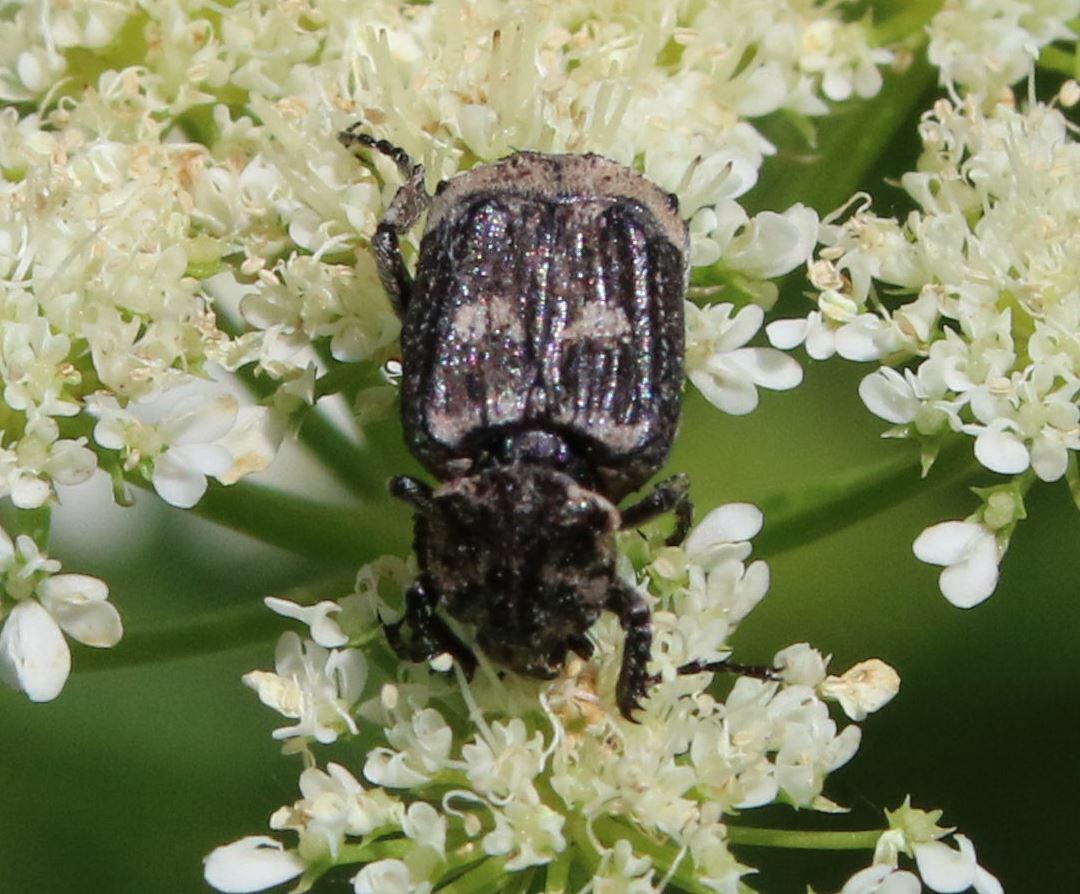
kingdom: Animalia
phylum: Arthropoda
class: Insecta
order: Coleoptera
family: Scarabaeidae
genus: Valgus
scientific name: Valgus hemipterus
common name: Bug flower chafer
